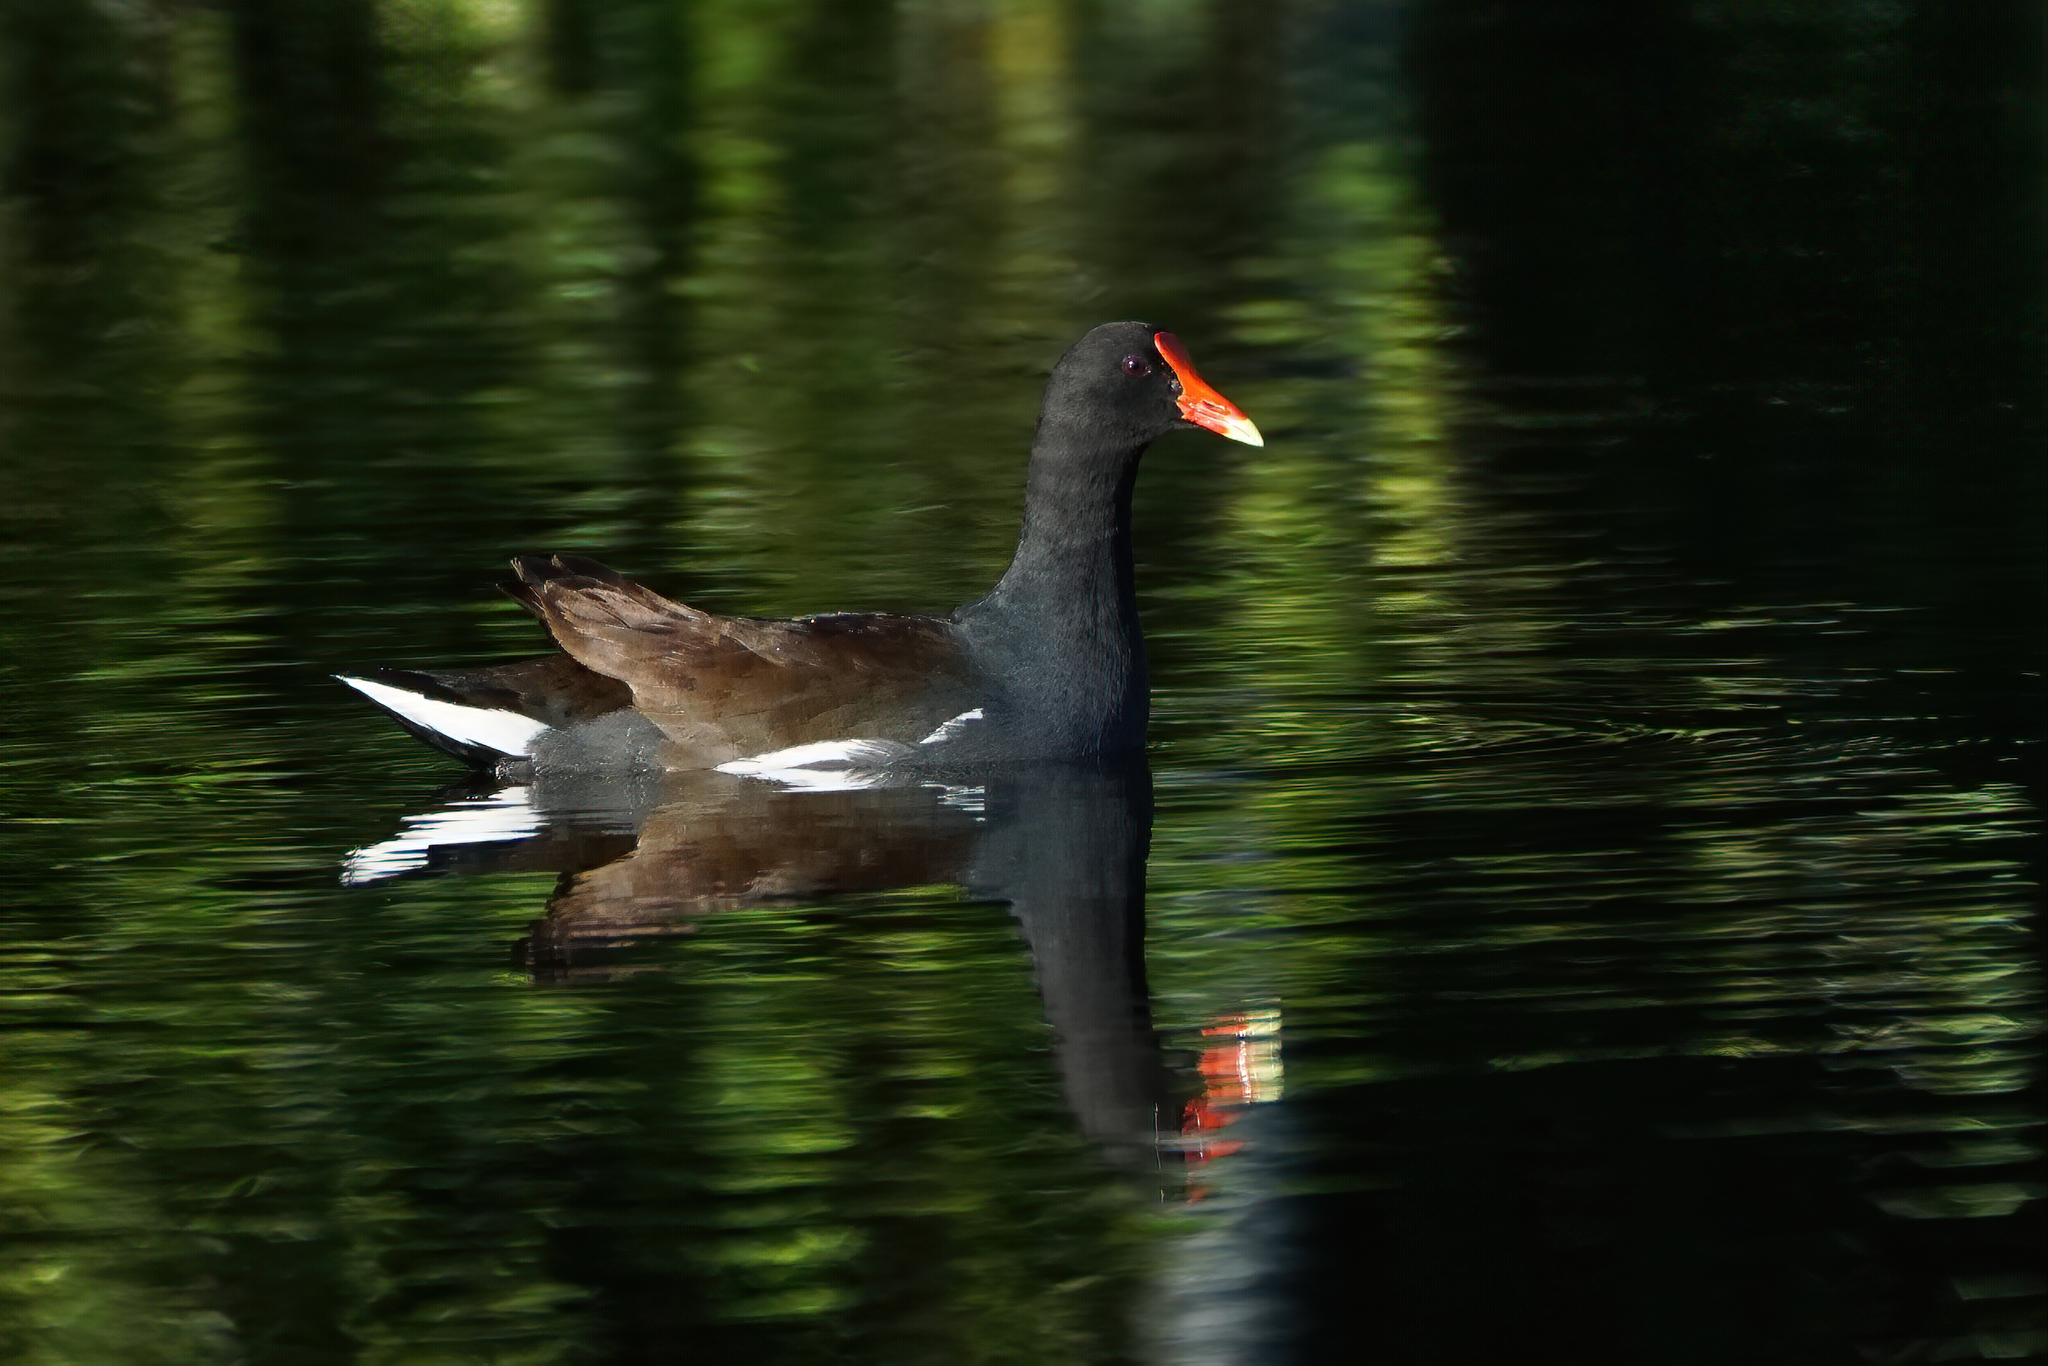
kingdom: Animalia
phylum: Chordata
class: Aves
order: Gruiformes
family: Rallidae
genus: Gallinula
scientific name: Gallinula chloropus
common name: Common moorhen
